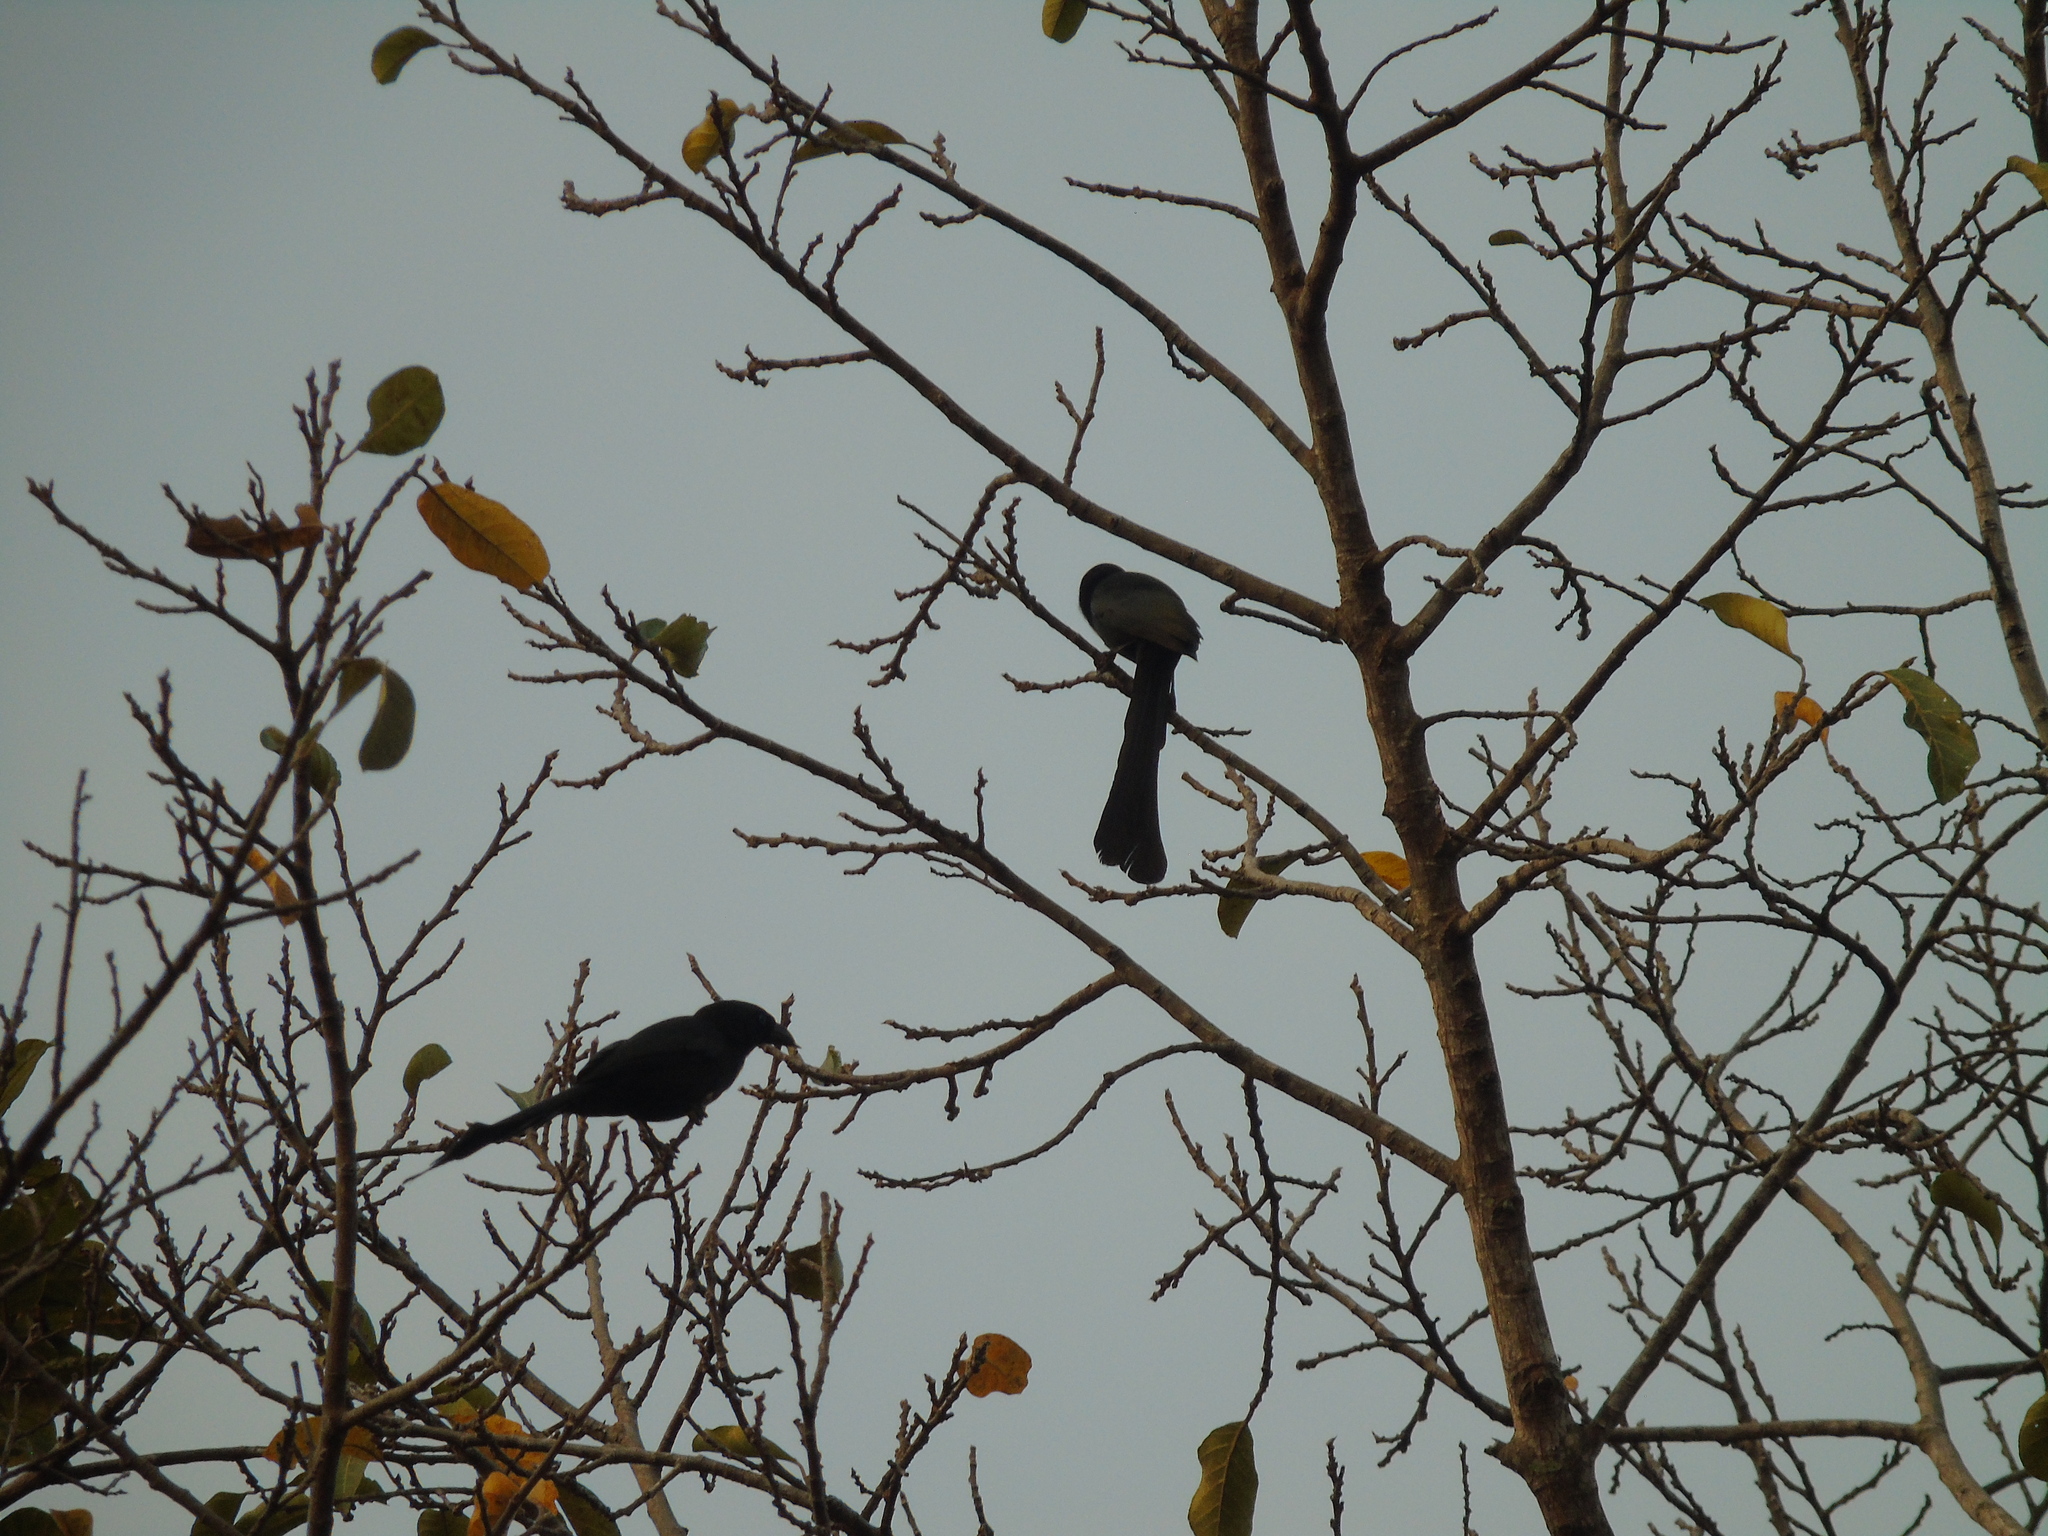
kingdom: Animalia
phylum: Chordata
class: Aves
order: Passeriformes
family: Corvidae
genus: Crypsirina
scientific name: Crypsirina temia
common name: Racket-tailed treepie
